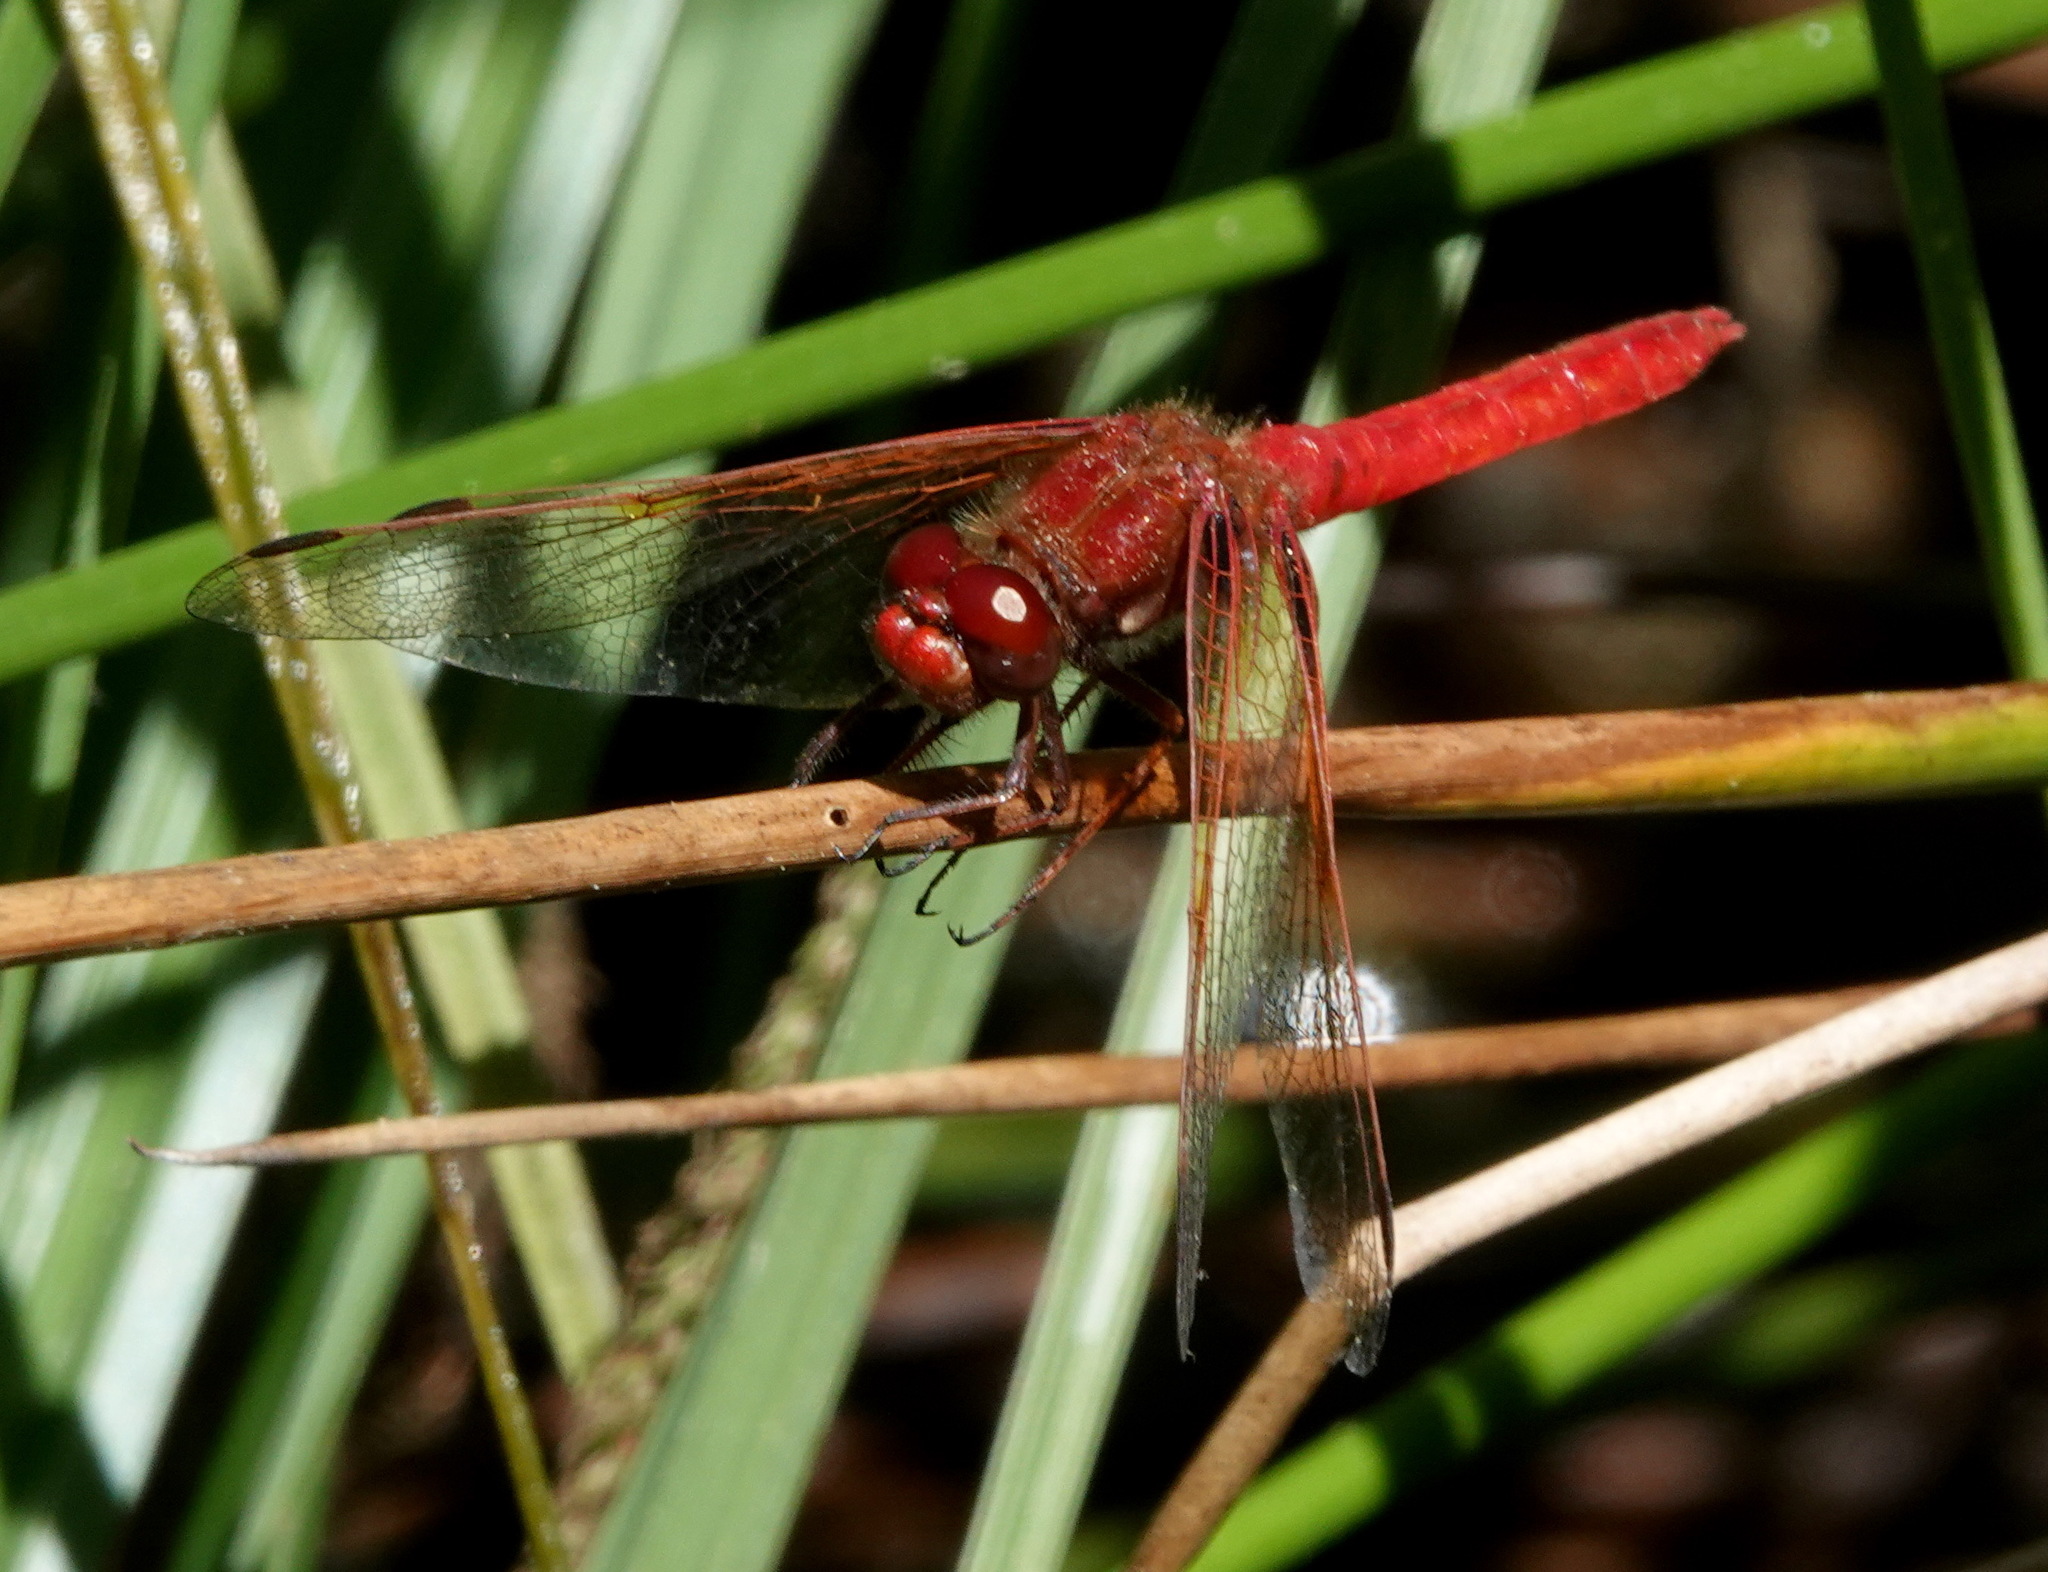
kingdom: Animalia
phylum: Arthropoda
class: Insecta
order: Odonata
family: Libellulidae
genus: Sympetrum
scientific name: Sympetrum illotum
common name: Cardinal meadowhawk
